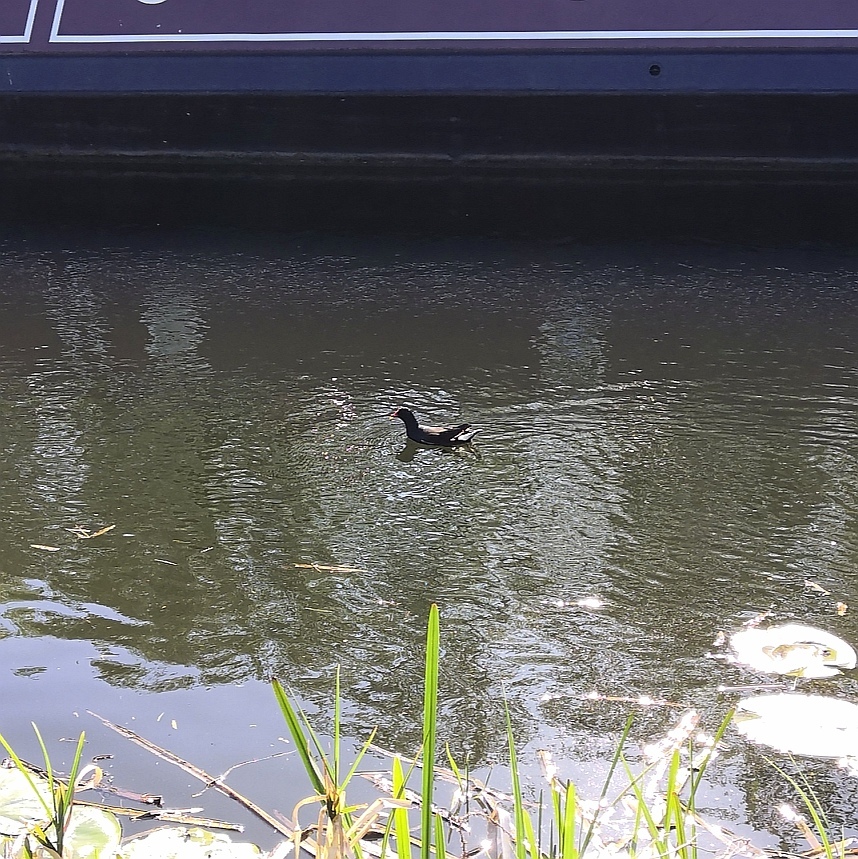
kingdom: Animalia
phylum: Chordata
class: Aves
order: Gruiformes
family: Rallidae
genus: Gallinula
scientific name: Gallinula chloropus
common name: Common moorhen
